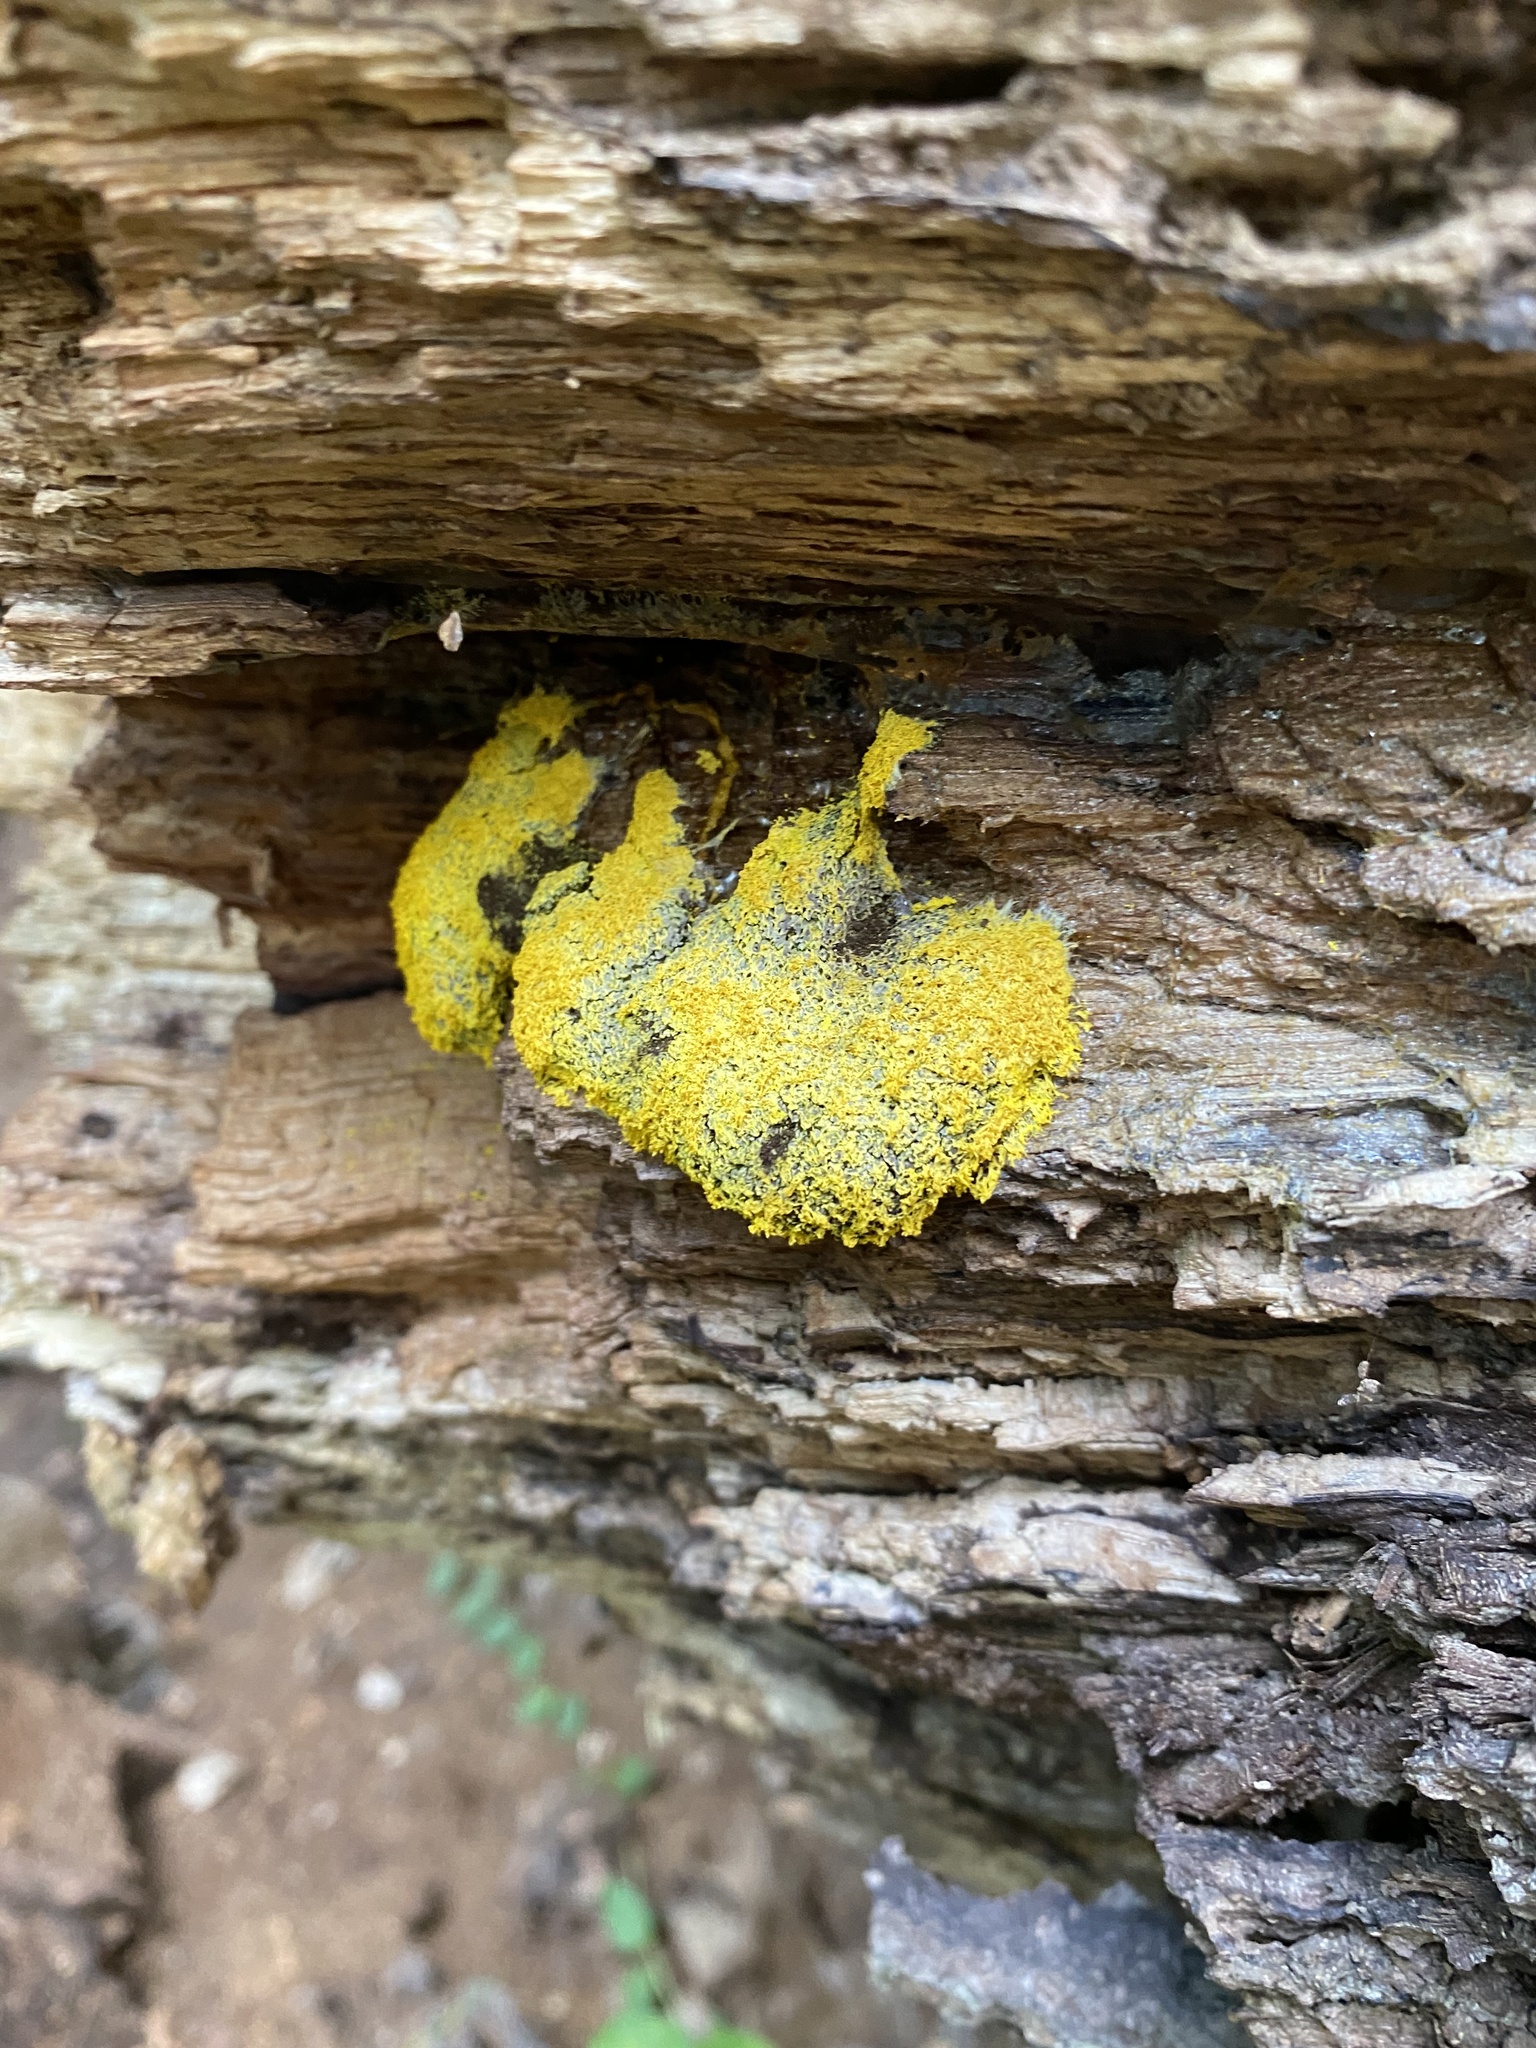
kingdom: Protozoa
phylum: Mycetozoa
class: Myxomycetes
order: Physarales
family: Physaraceae
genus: Fuligo
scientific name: Fuligo septica
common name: Dog vomit slime mold
